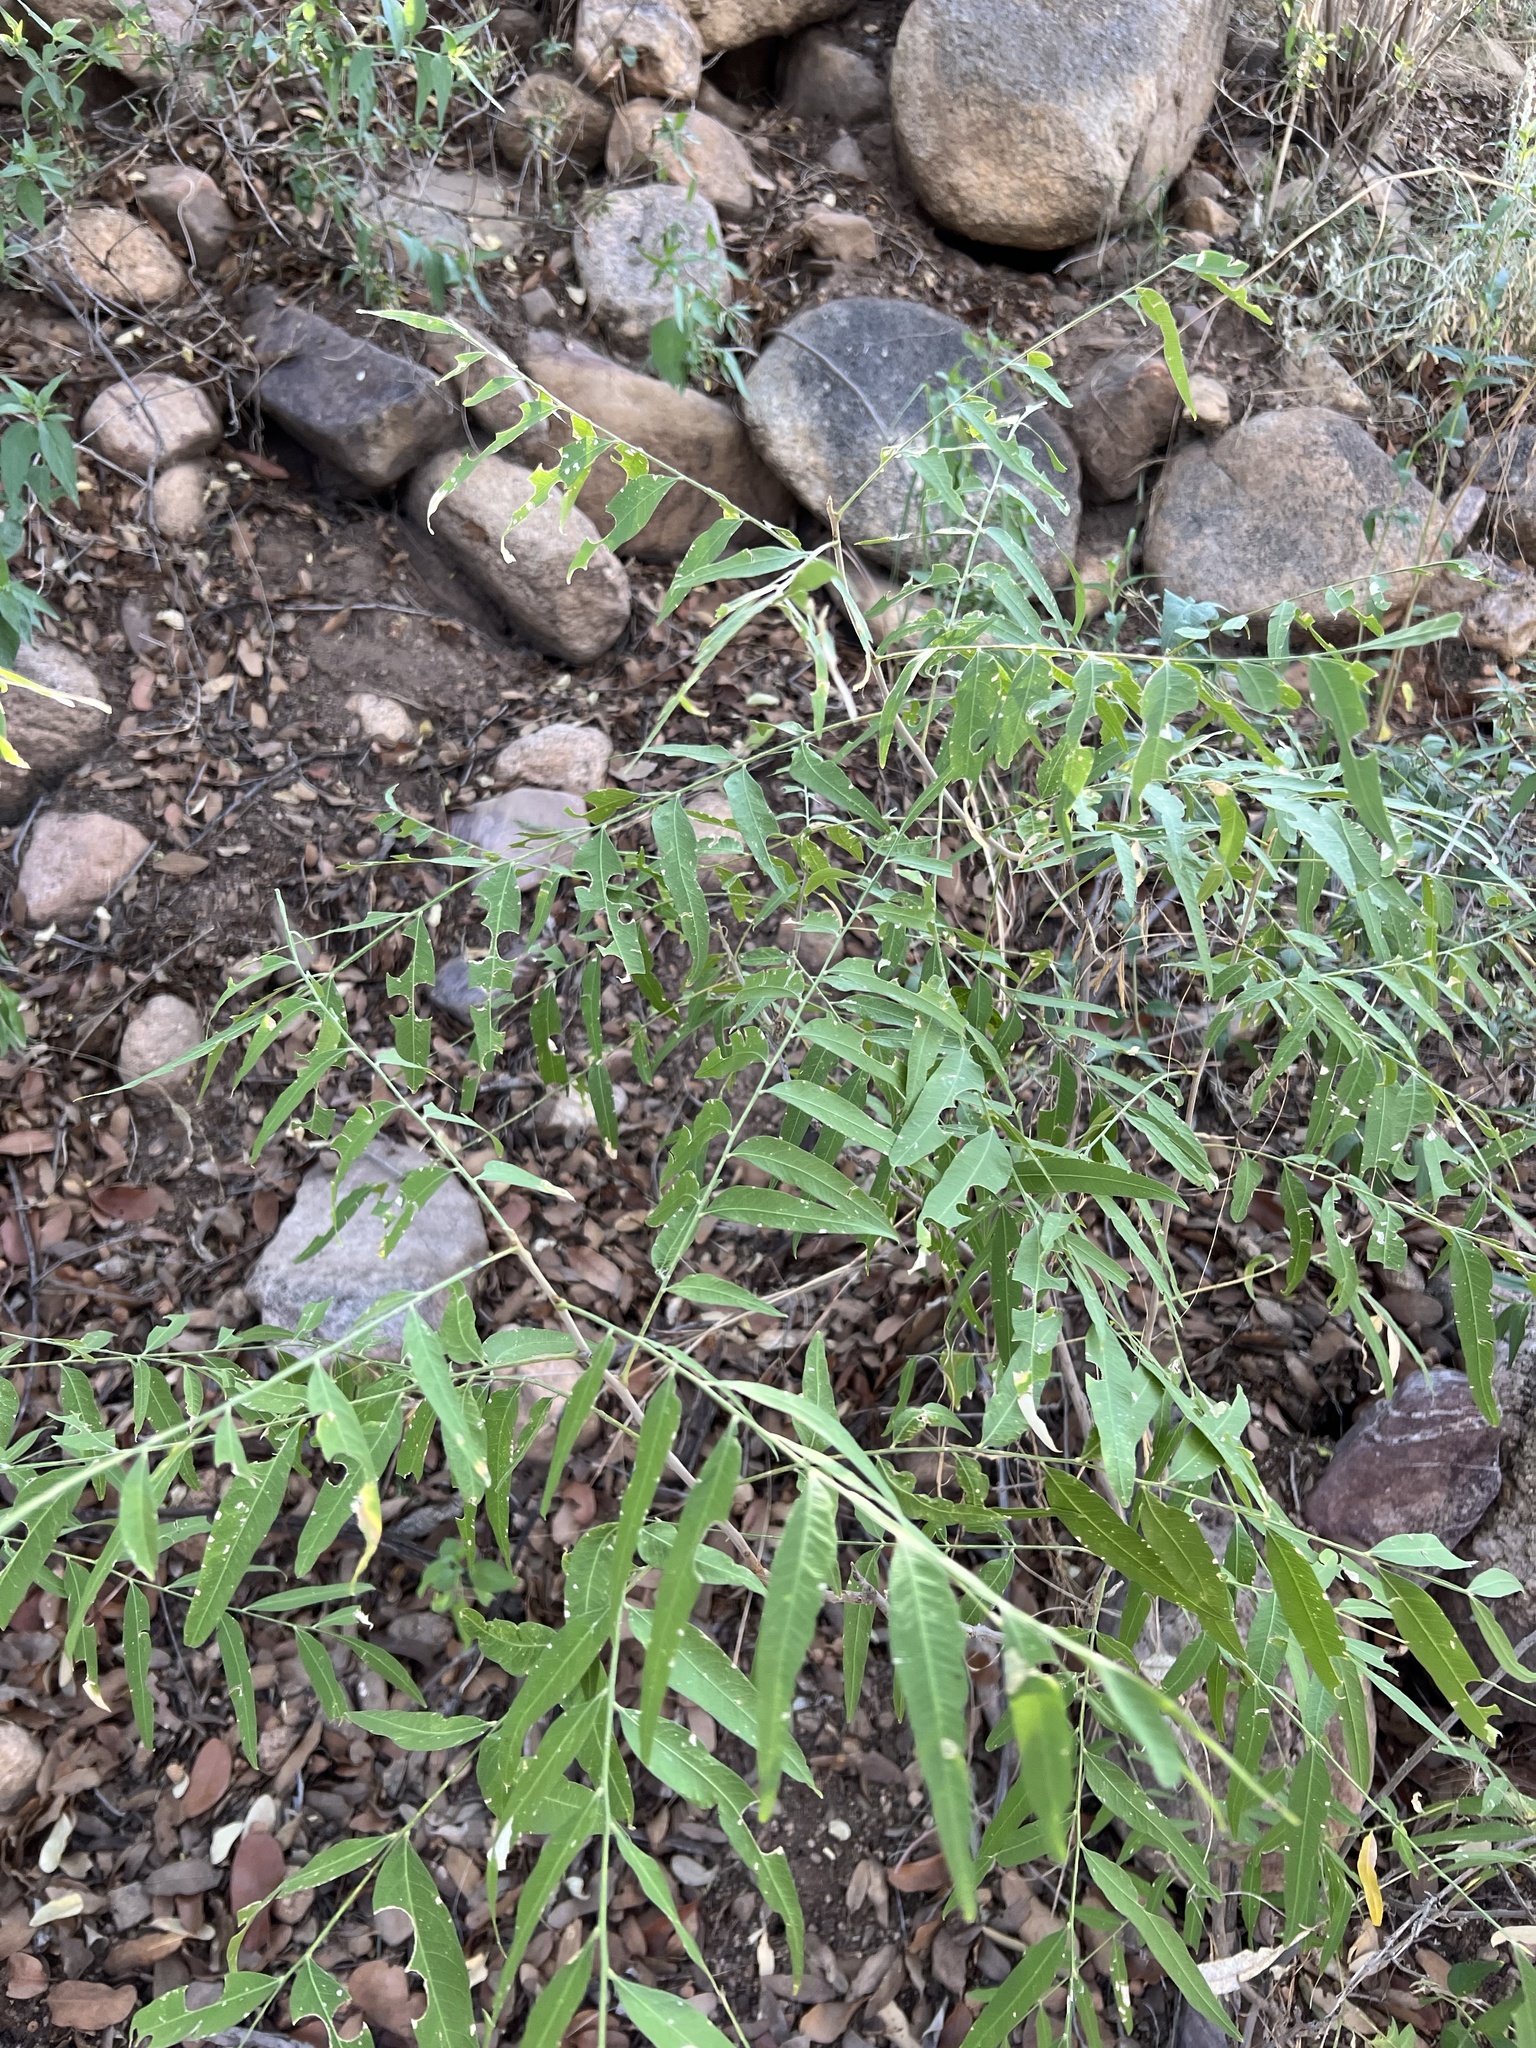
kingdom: Plantae
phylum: Tracheophyta
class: Magnoliopsida
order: Sapindales
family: Sapindaceae
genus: Sapindus
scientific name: Sapindus drummondii
